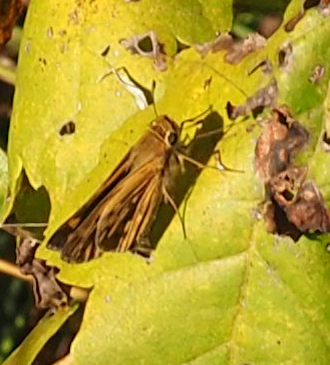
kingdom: Animalia
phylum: Arthropoda
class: Insecta
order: Lepidoptera
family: Hesperiidae
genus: Hylephila
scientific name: Hylephila phyleus
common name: Fiery skipper
